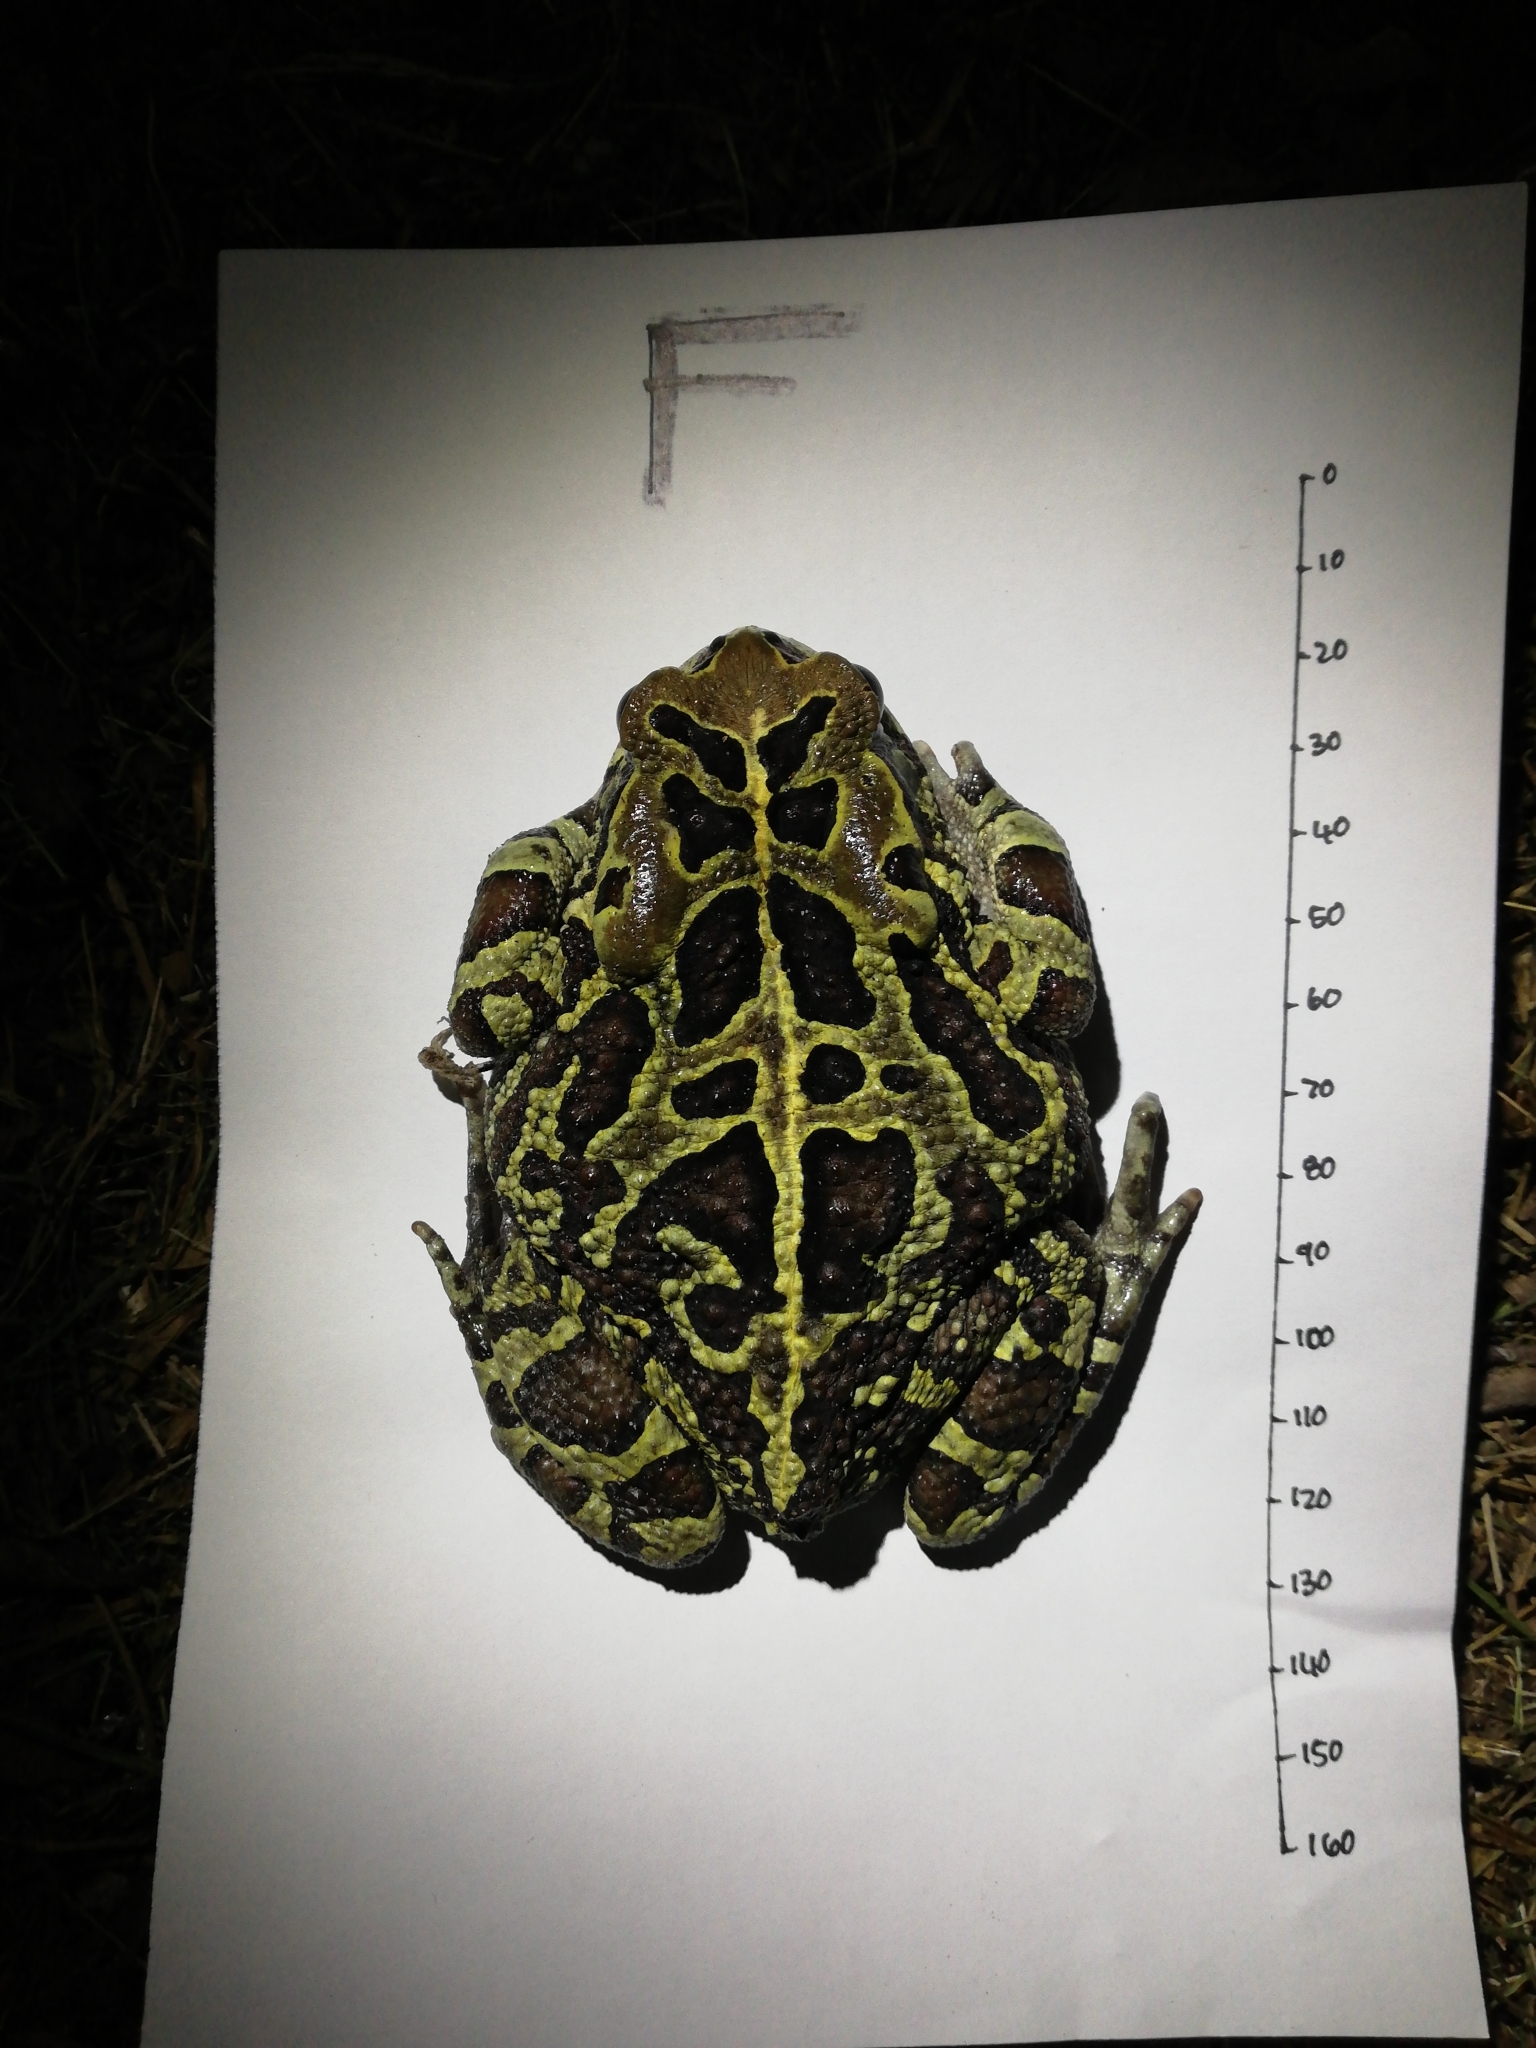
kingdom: Animalia
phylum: Chordata
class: Amphibia
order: Anura
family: Bufonidae
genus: Sclerophrys
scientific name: Sclerophrys pantherina
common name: Panther toad
